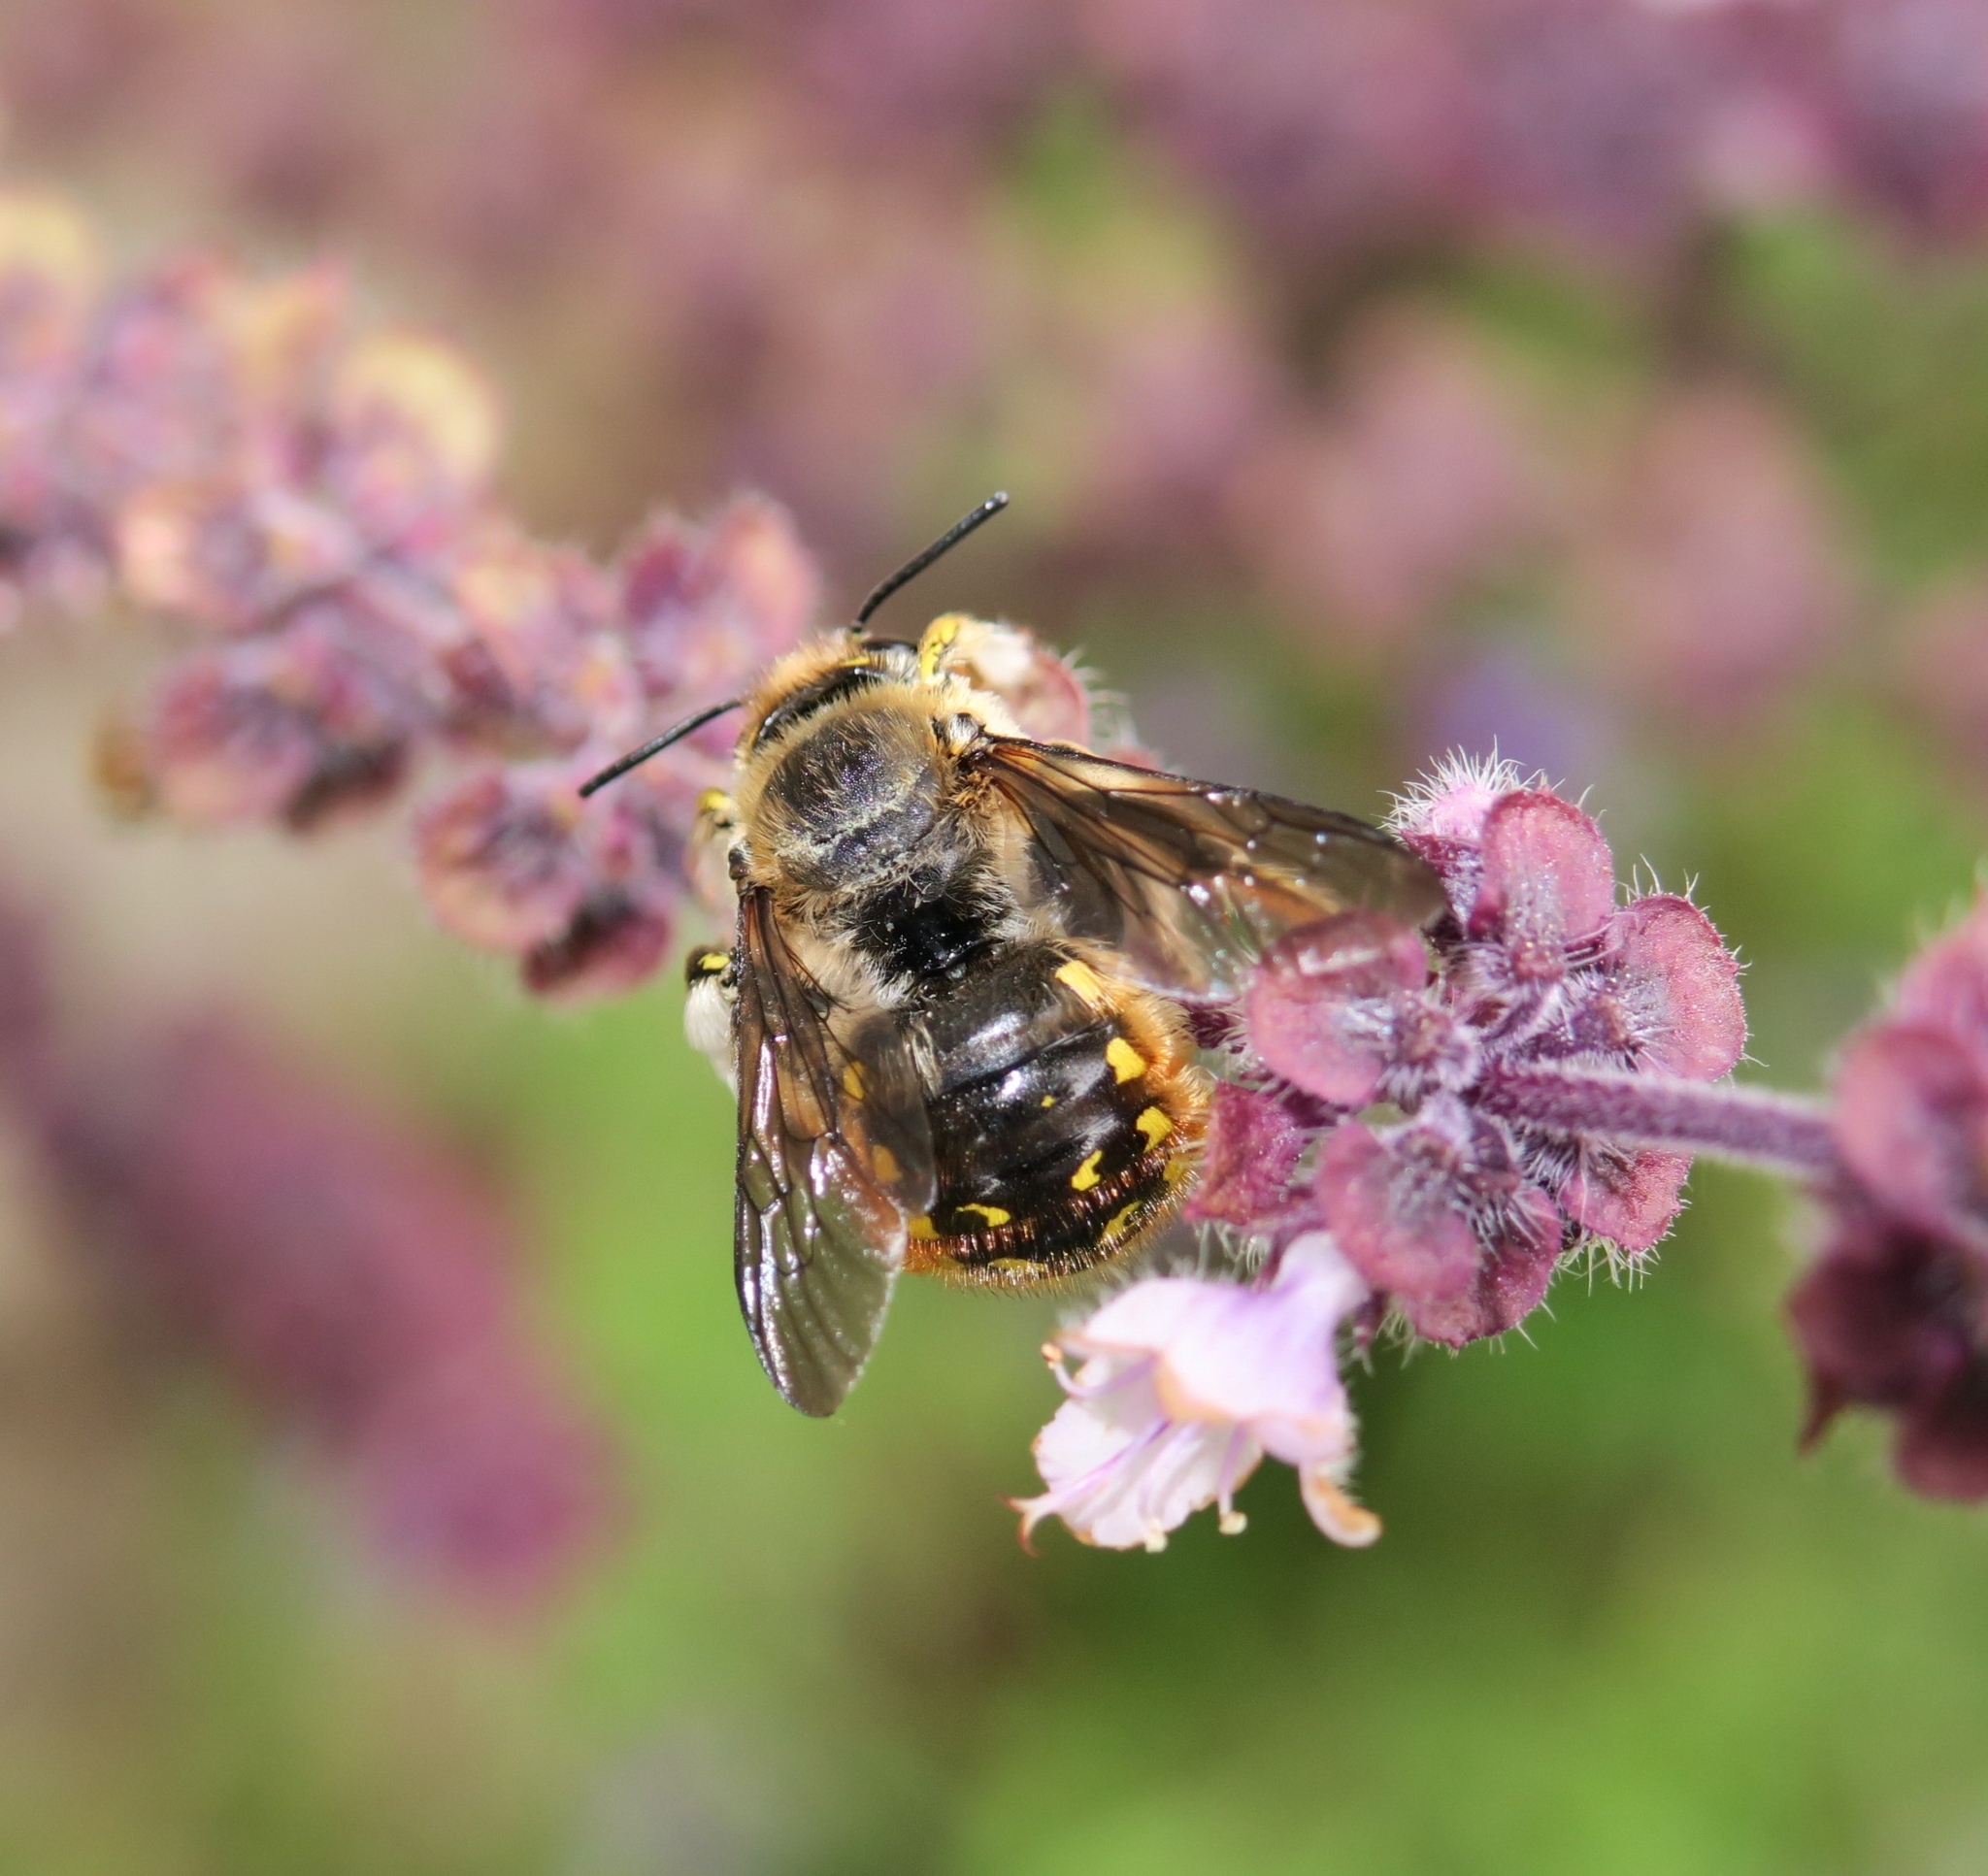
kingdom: Animalia
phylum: Arthropoda
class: Insecta
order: Hymenoptera
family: Megachilidae
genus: Anthidium
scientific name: Anthidium manicatum
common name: Wool carder bee
